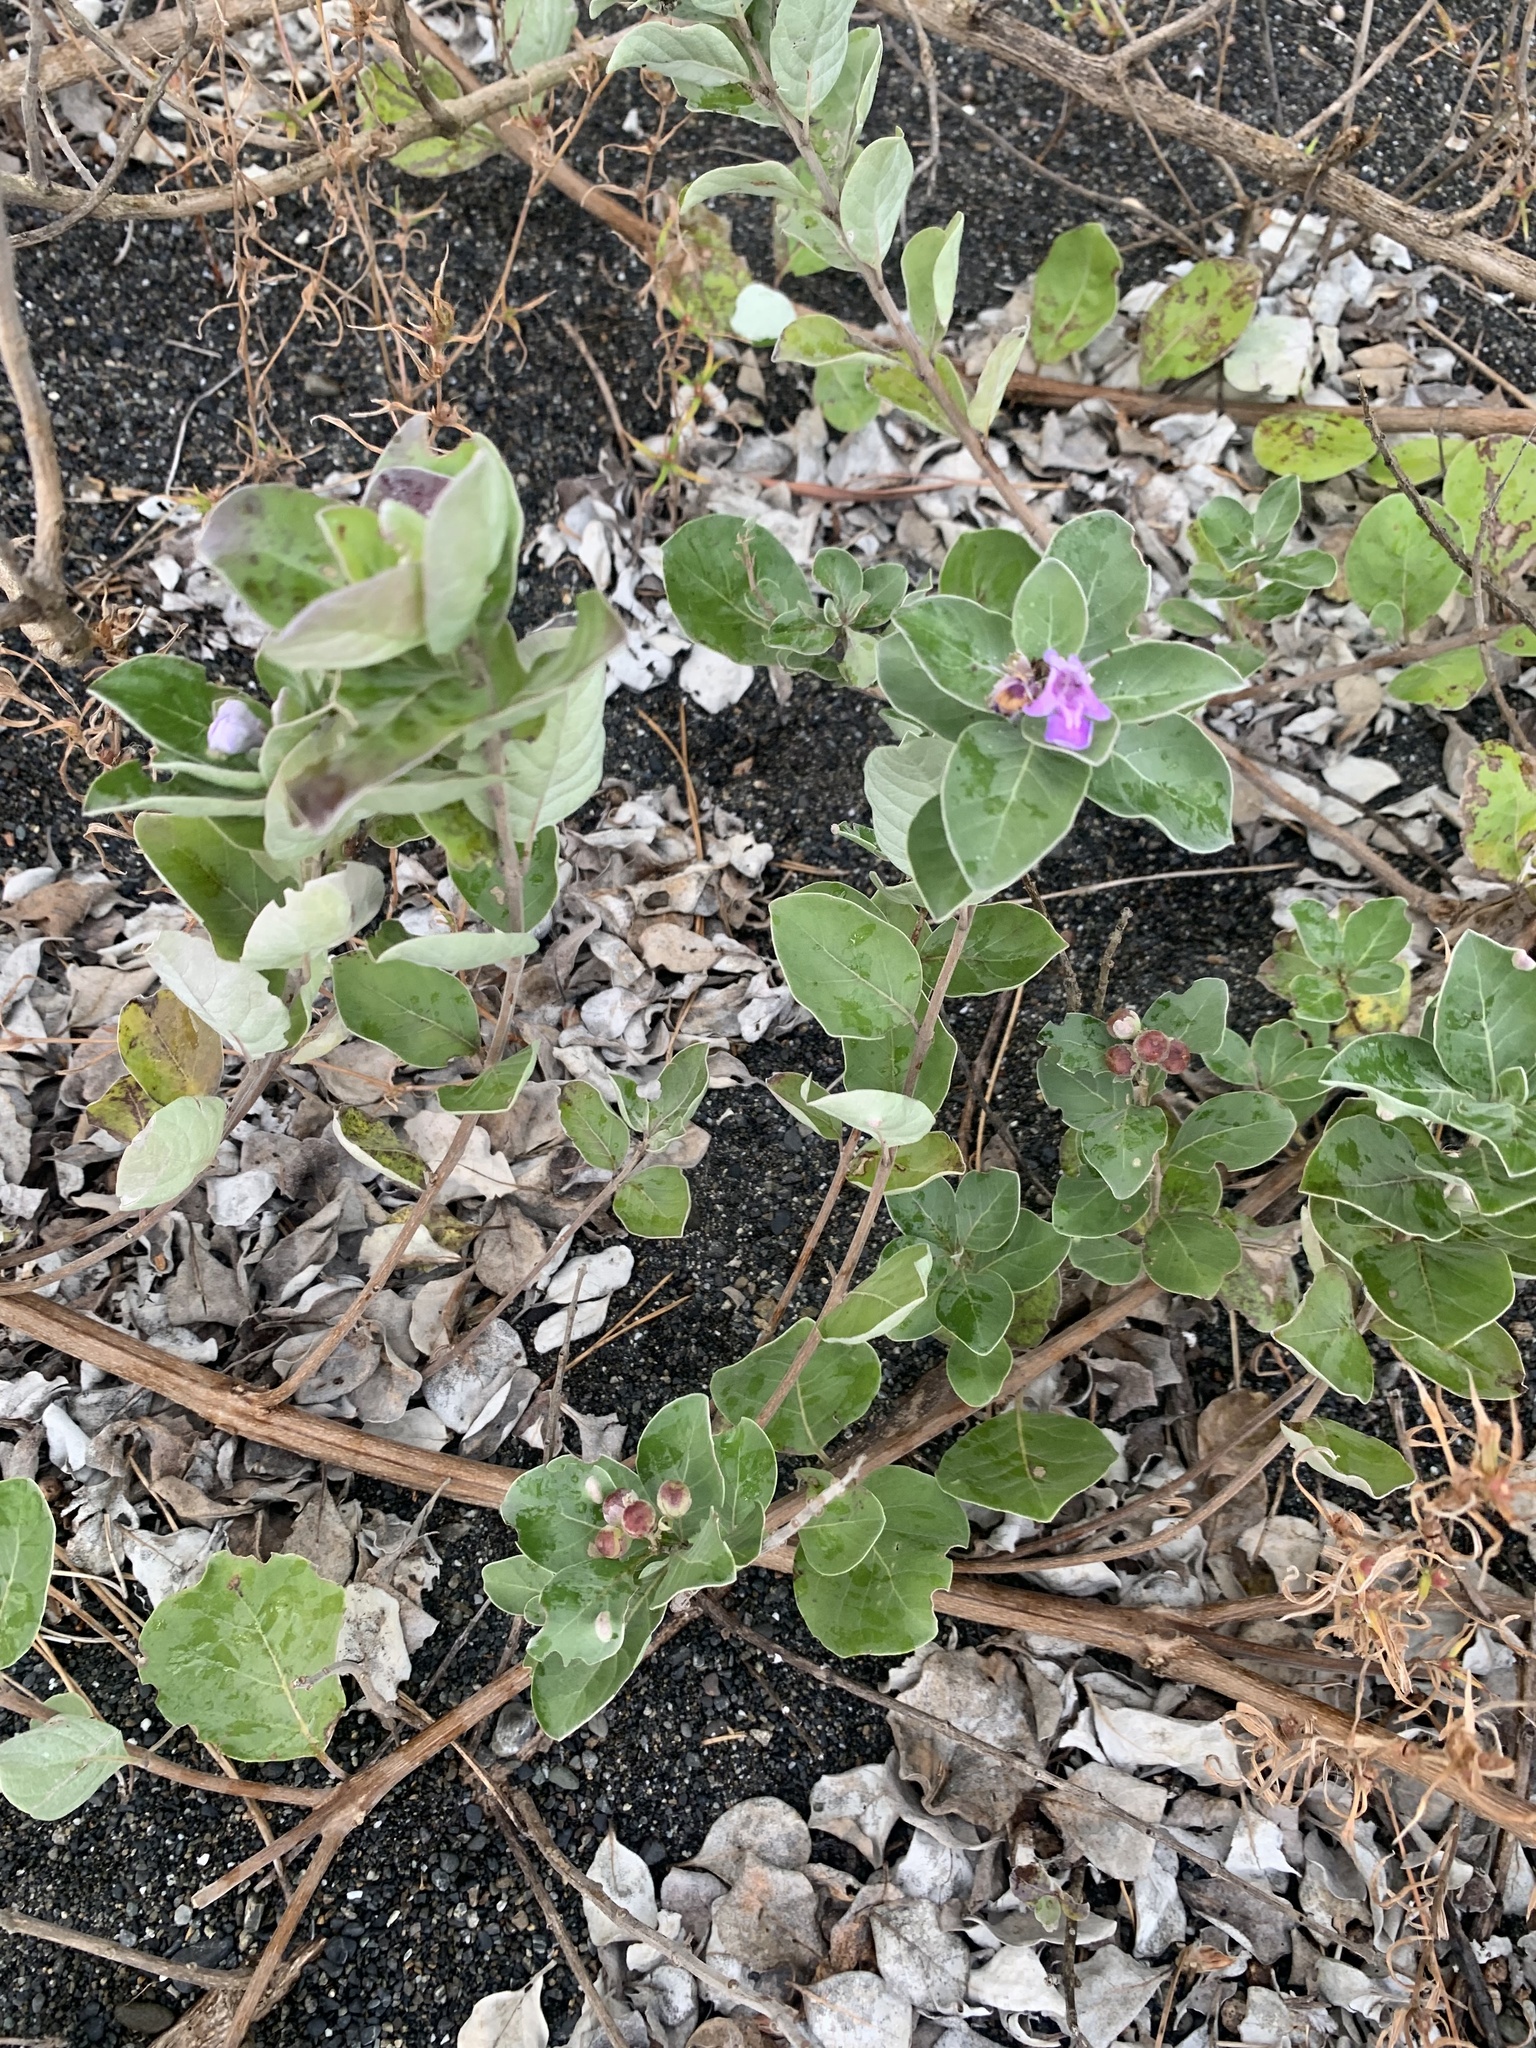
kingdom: Plantae
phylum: Tracheophyta
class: Magnoliopsida
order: Lamiales
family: Lamiaceae
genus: Vitex
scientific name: Vitex rotundifolia
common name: Beach vitex
